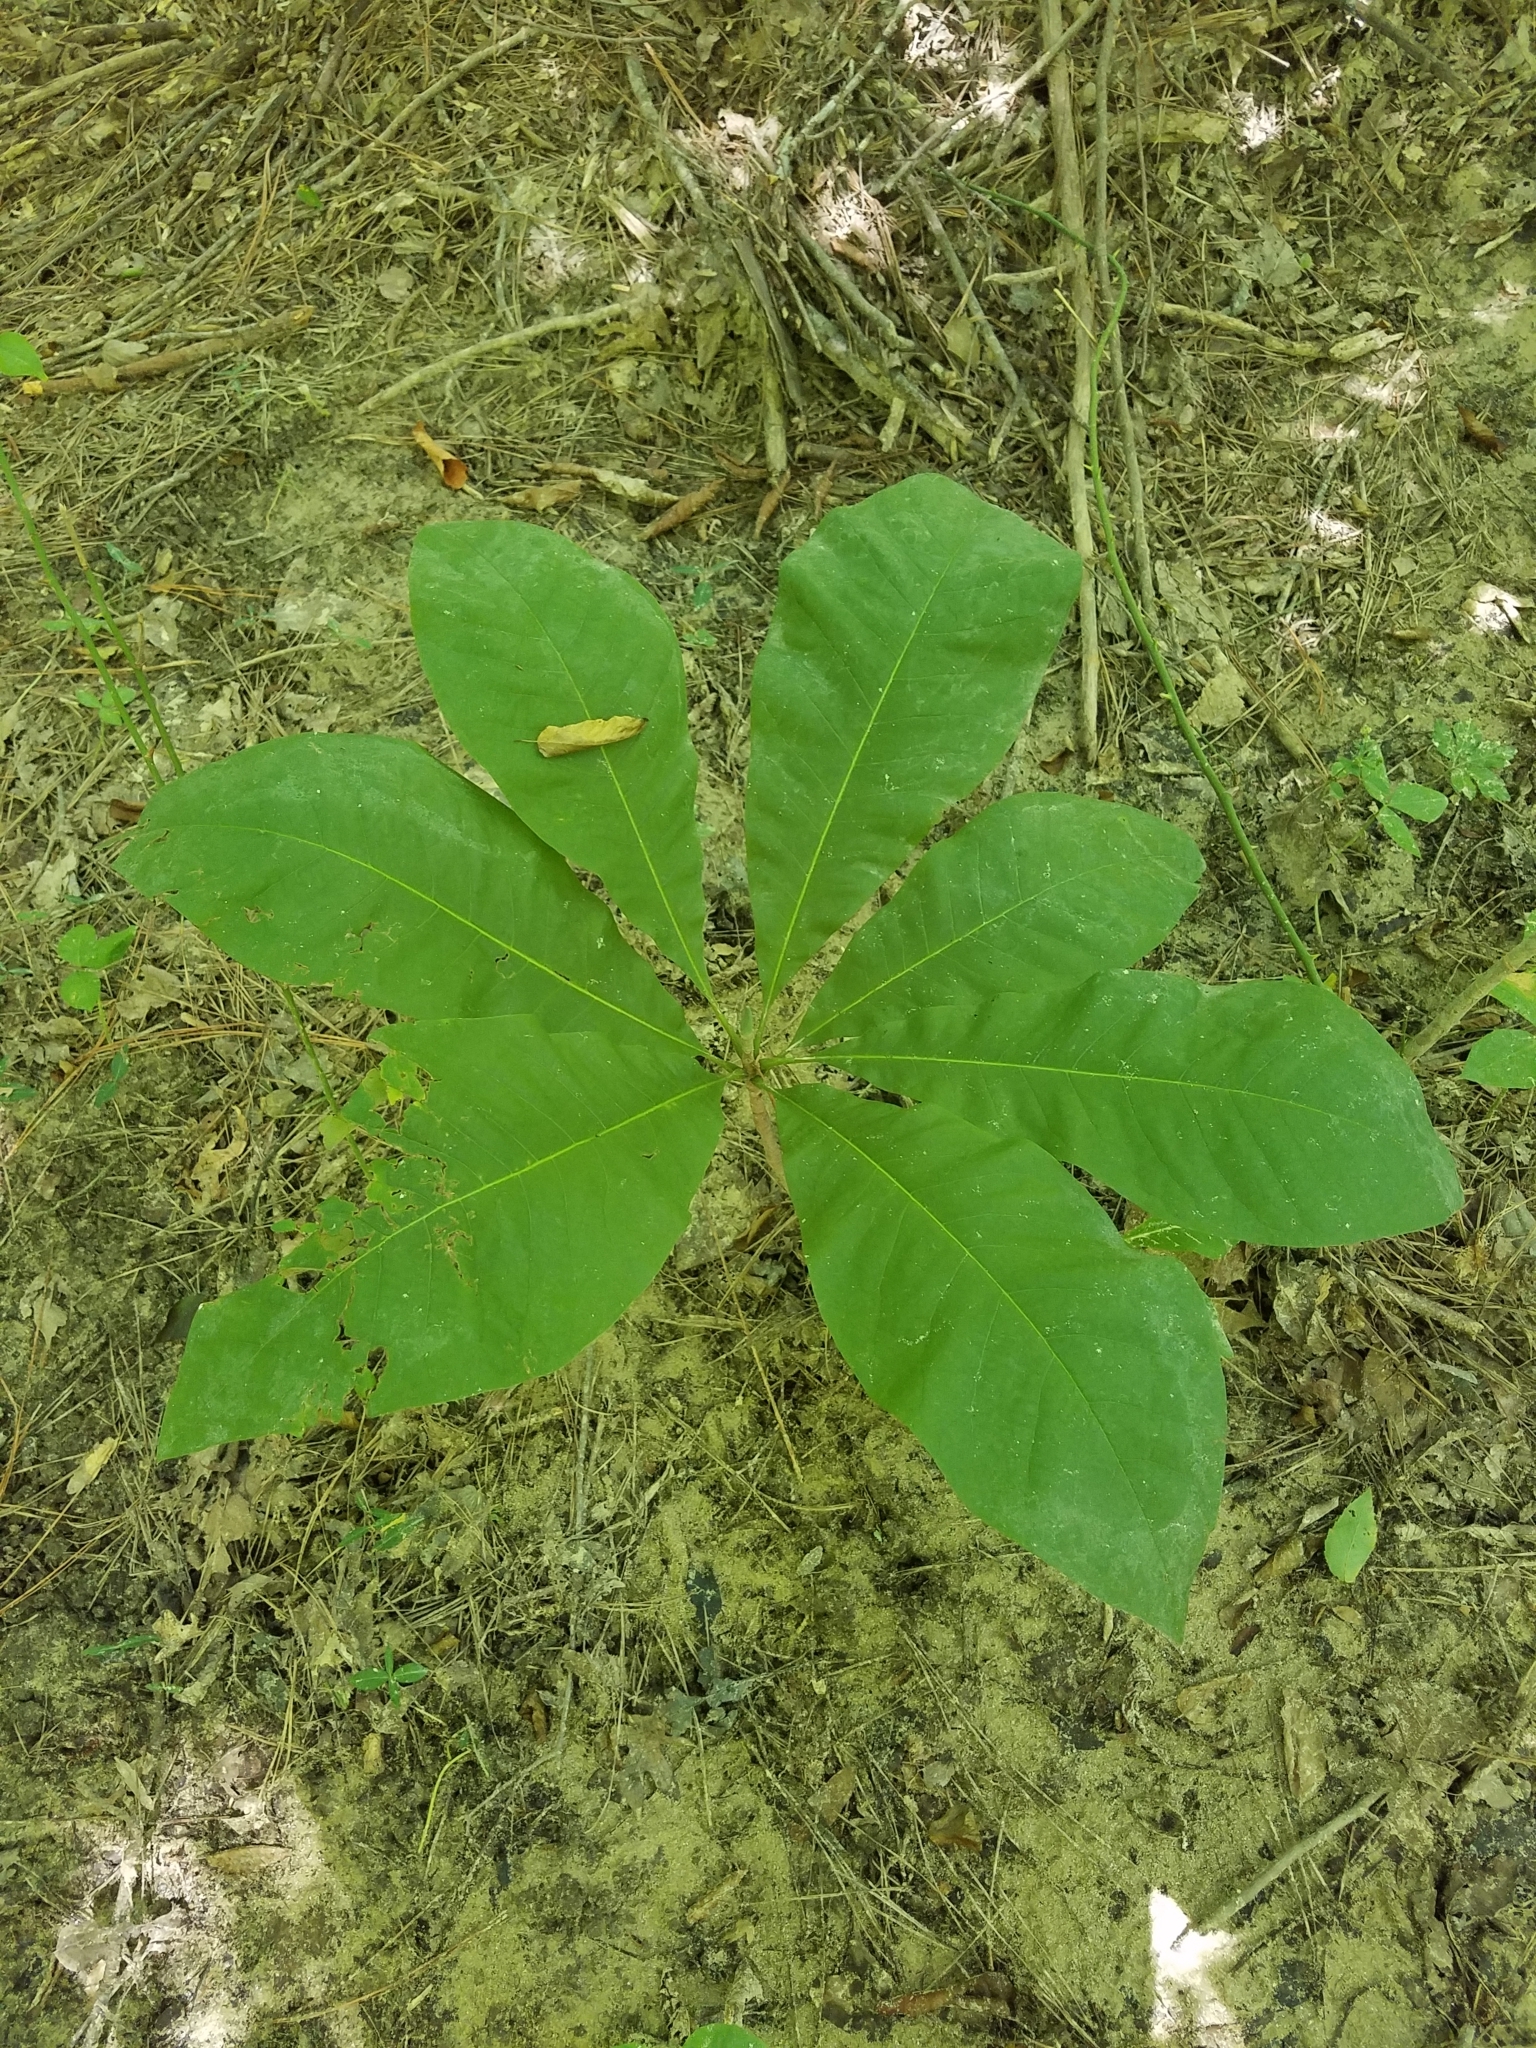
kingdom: Plantae
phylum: Tracheophyta
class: Magnoliopsida
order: Magnoliales
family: Magnoliaceae
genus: Magnolia
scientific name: Magnolia tripetala
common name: Umbrella magnolia
